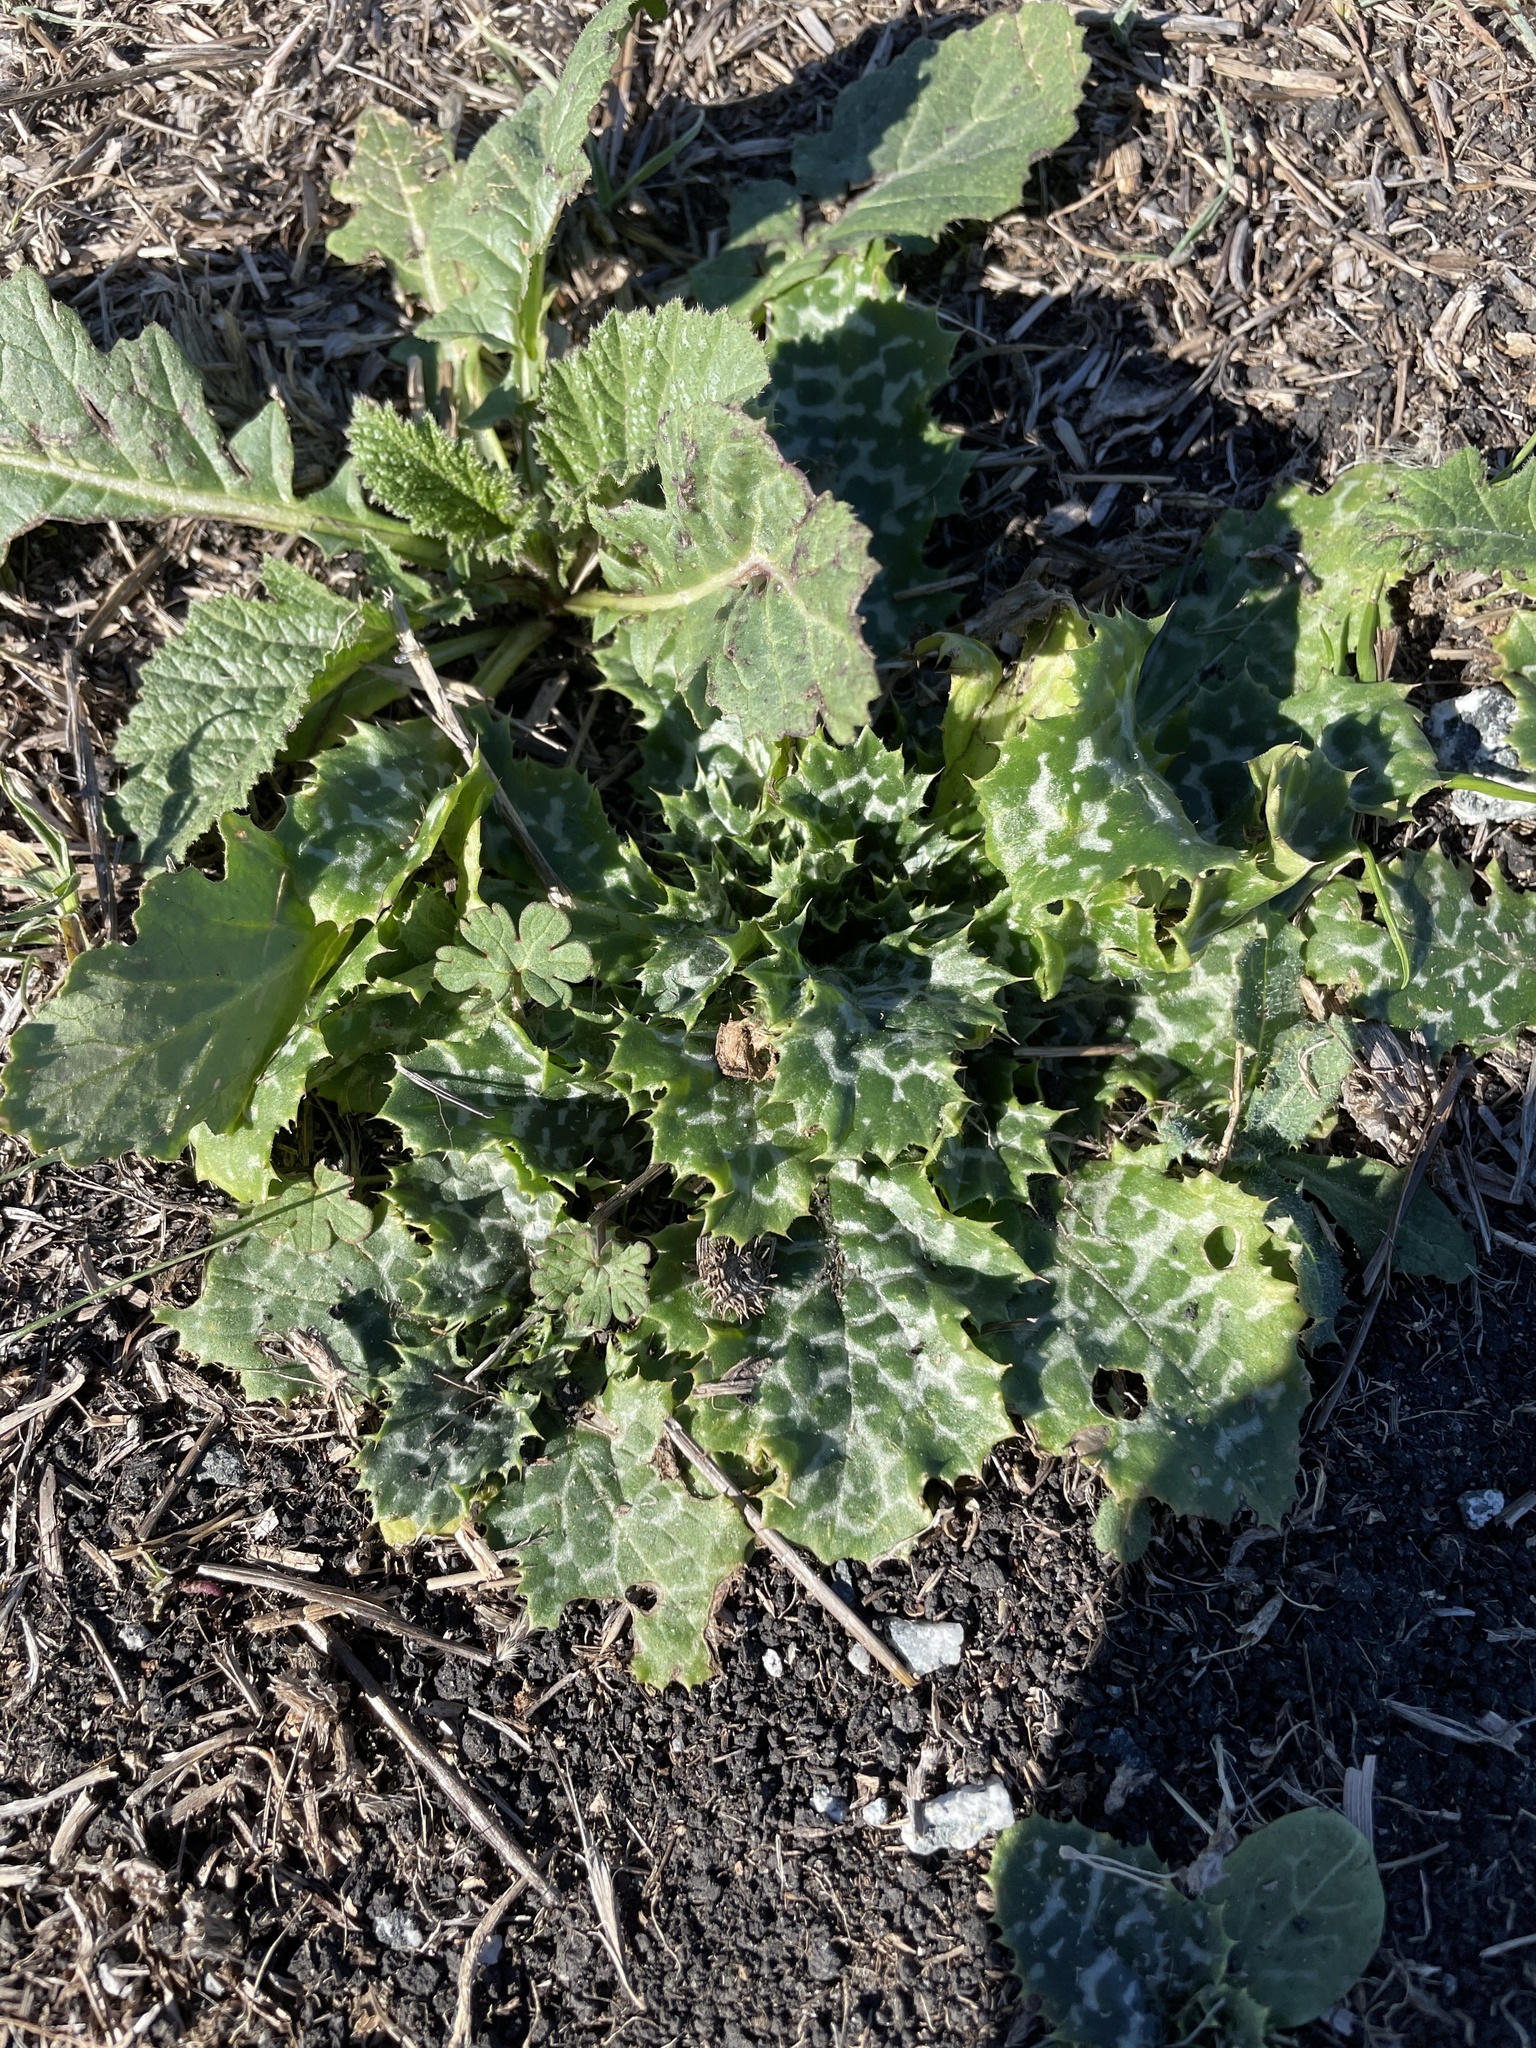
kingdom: Plantae
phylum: Tracheophyta
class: Magnoliopsida
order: Asterales
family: Asteraceae
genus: Silybum
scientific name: Silybum marianum
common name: Milk thistle
